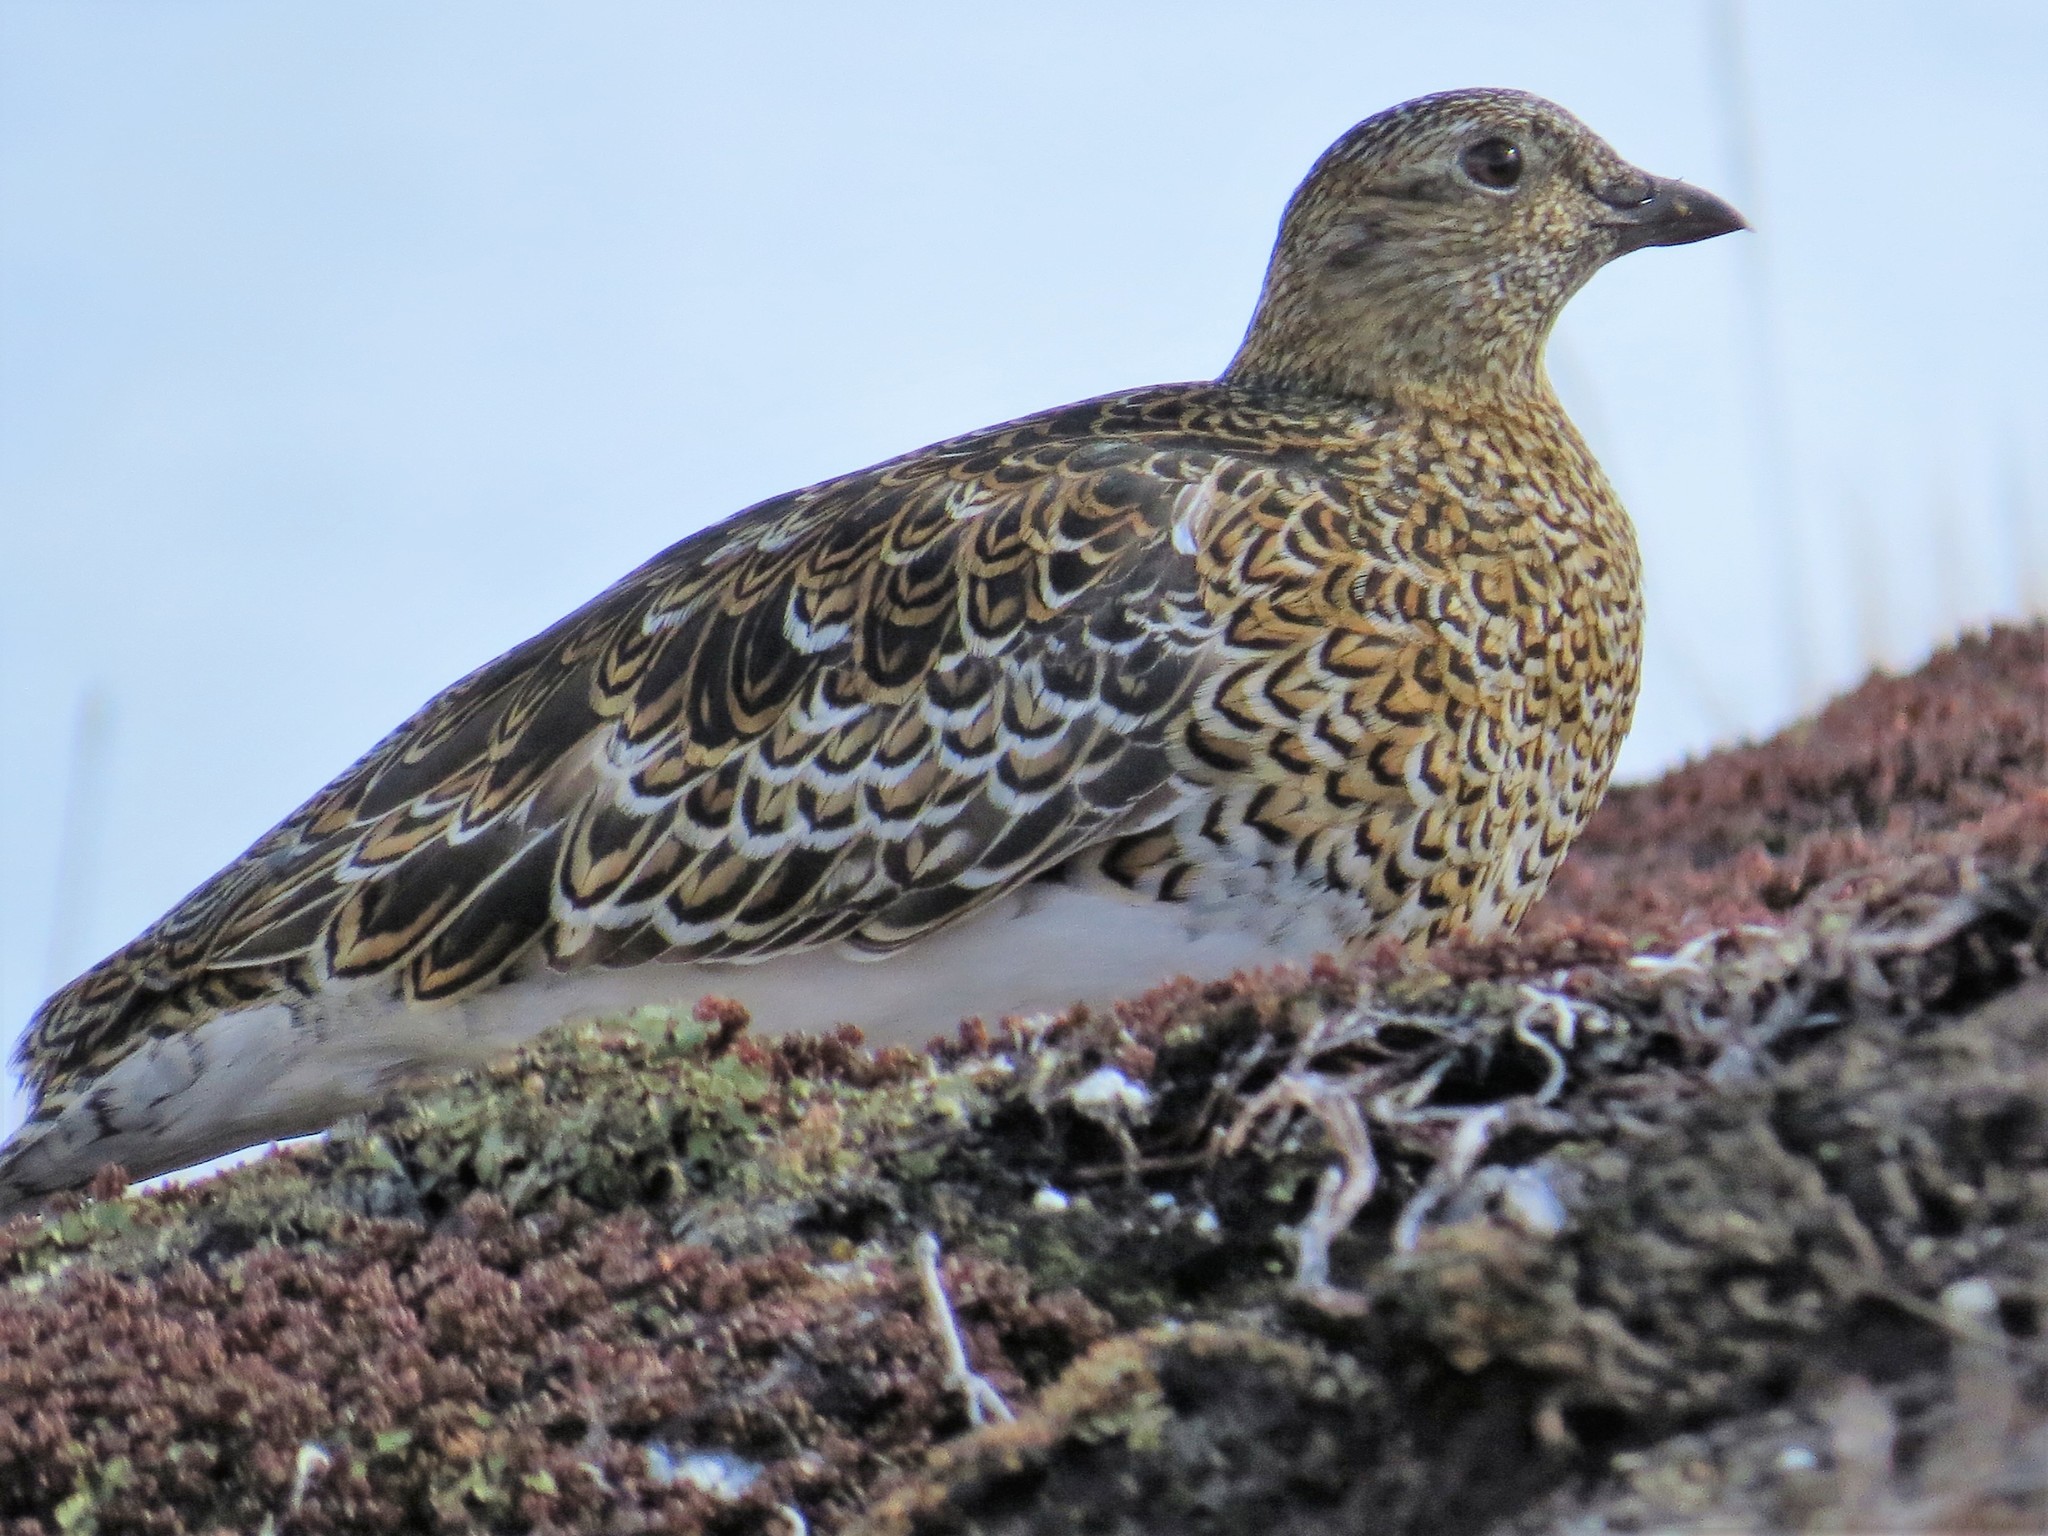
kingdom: Animalia
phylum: Chordata
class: Aves
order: Charadriiformes
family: Thinocoridae
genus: Attagis
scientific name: Attagis malouinus
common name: White-bellied seedsnipe
